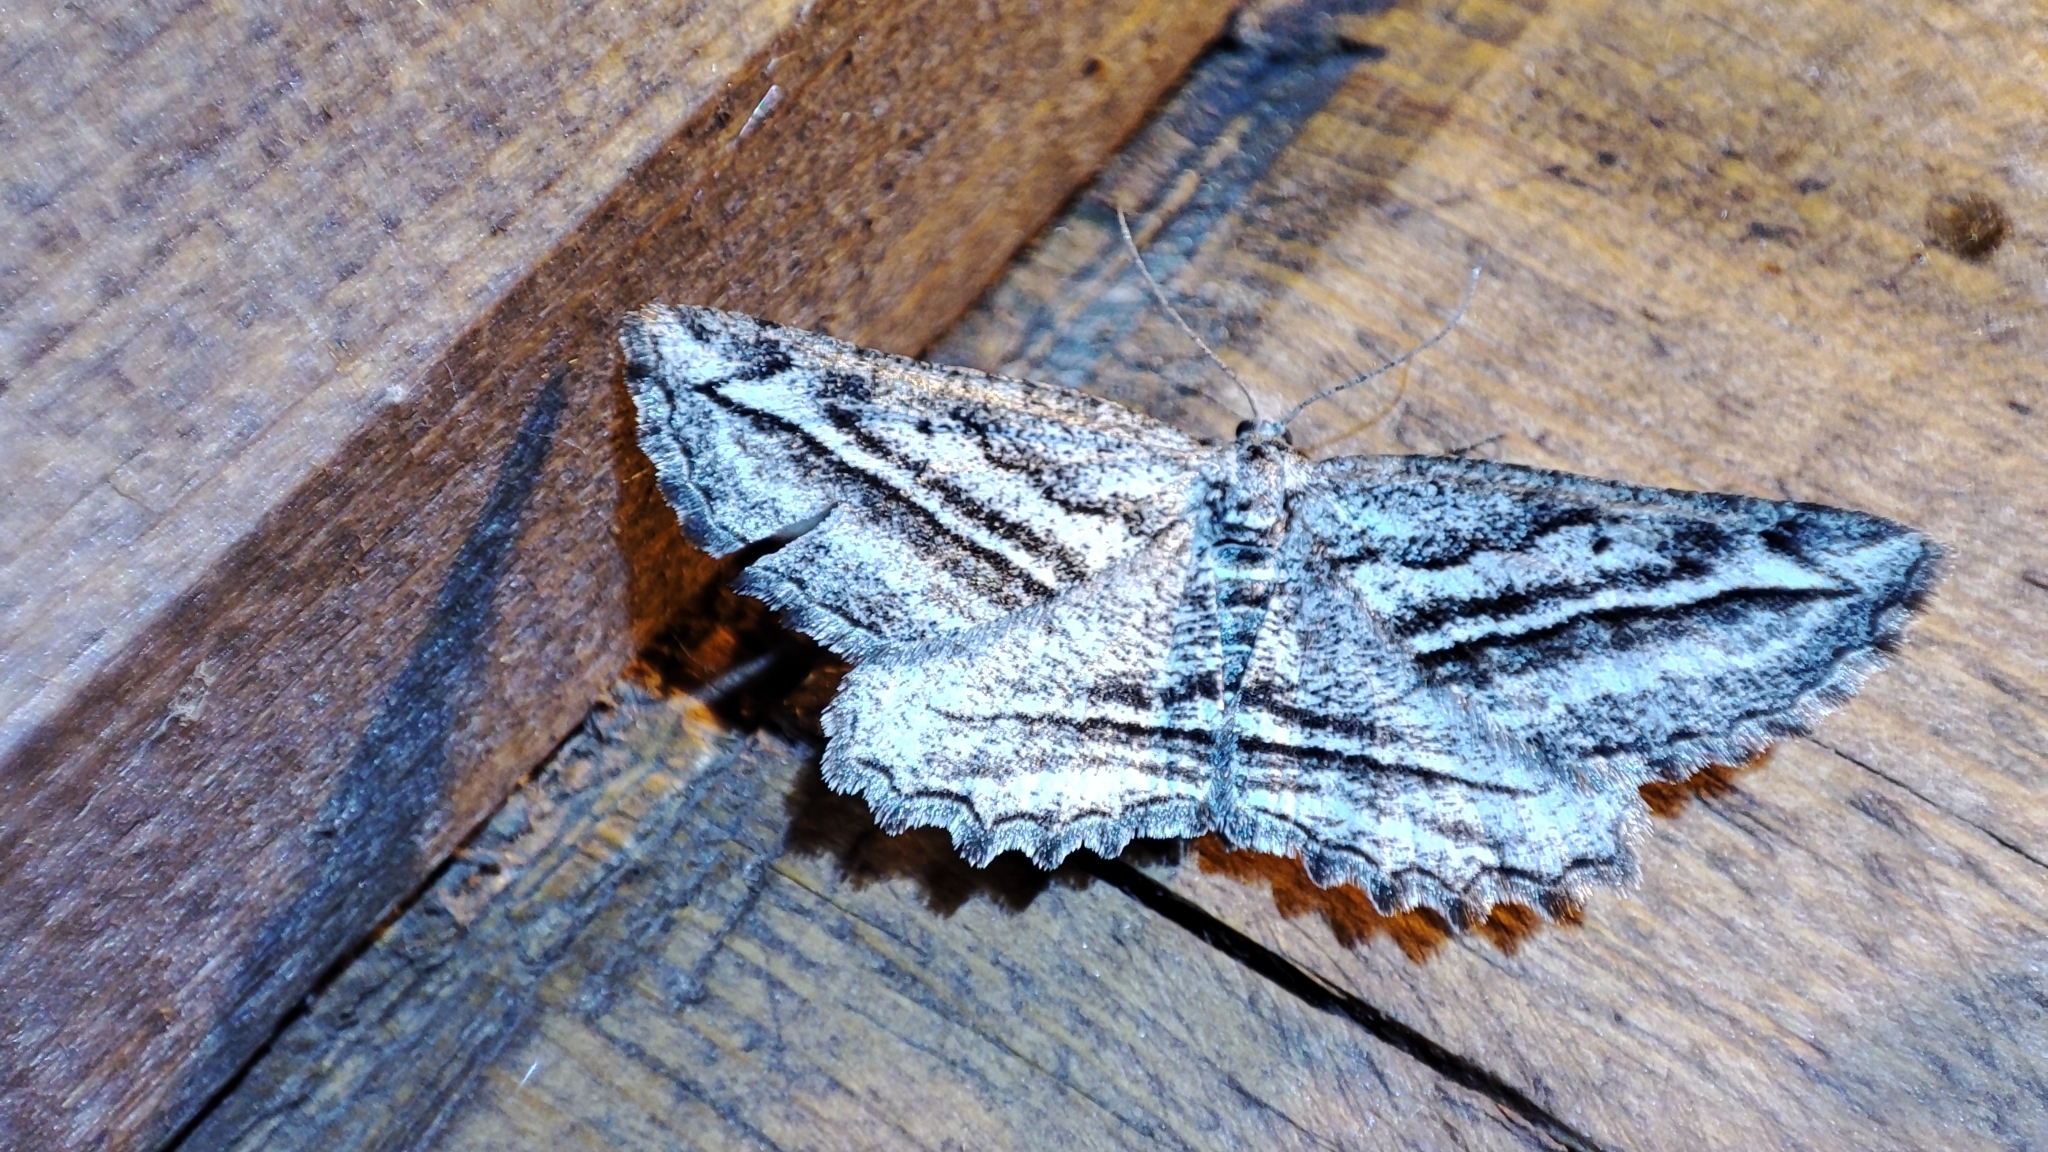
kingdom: Animalia
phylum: Arthropoda
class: Insecta
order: Lepidoptera
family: Geometridae
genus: Phthonandria
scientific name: Phthonandria
